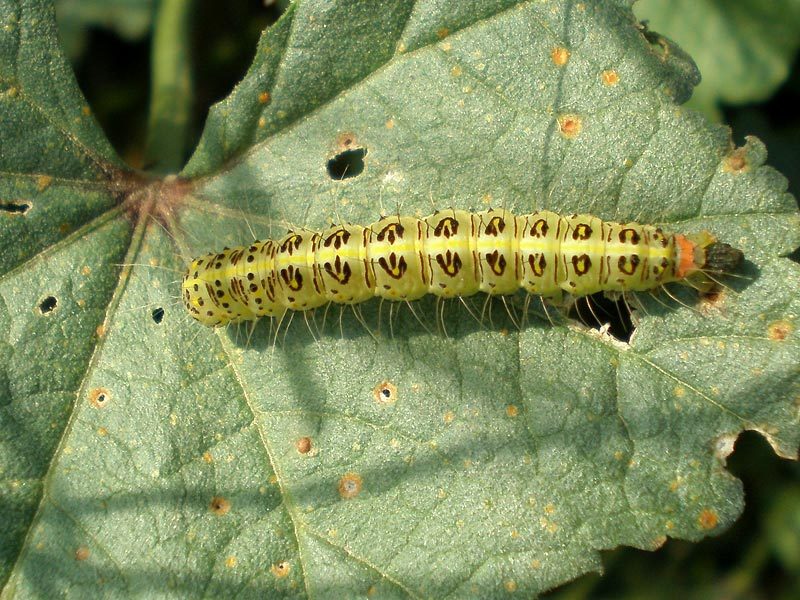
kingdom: Animalia
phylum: Arthropoda
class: Insecta
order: Lepidoptera
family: Nolidae
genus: Pardoxia
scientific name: Pardoxia graellsii
